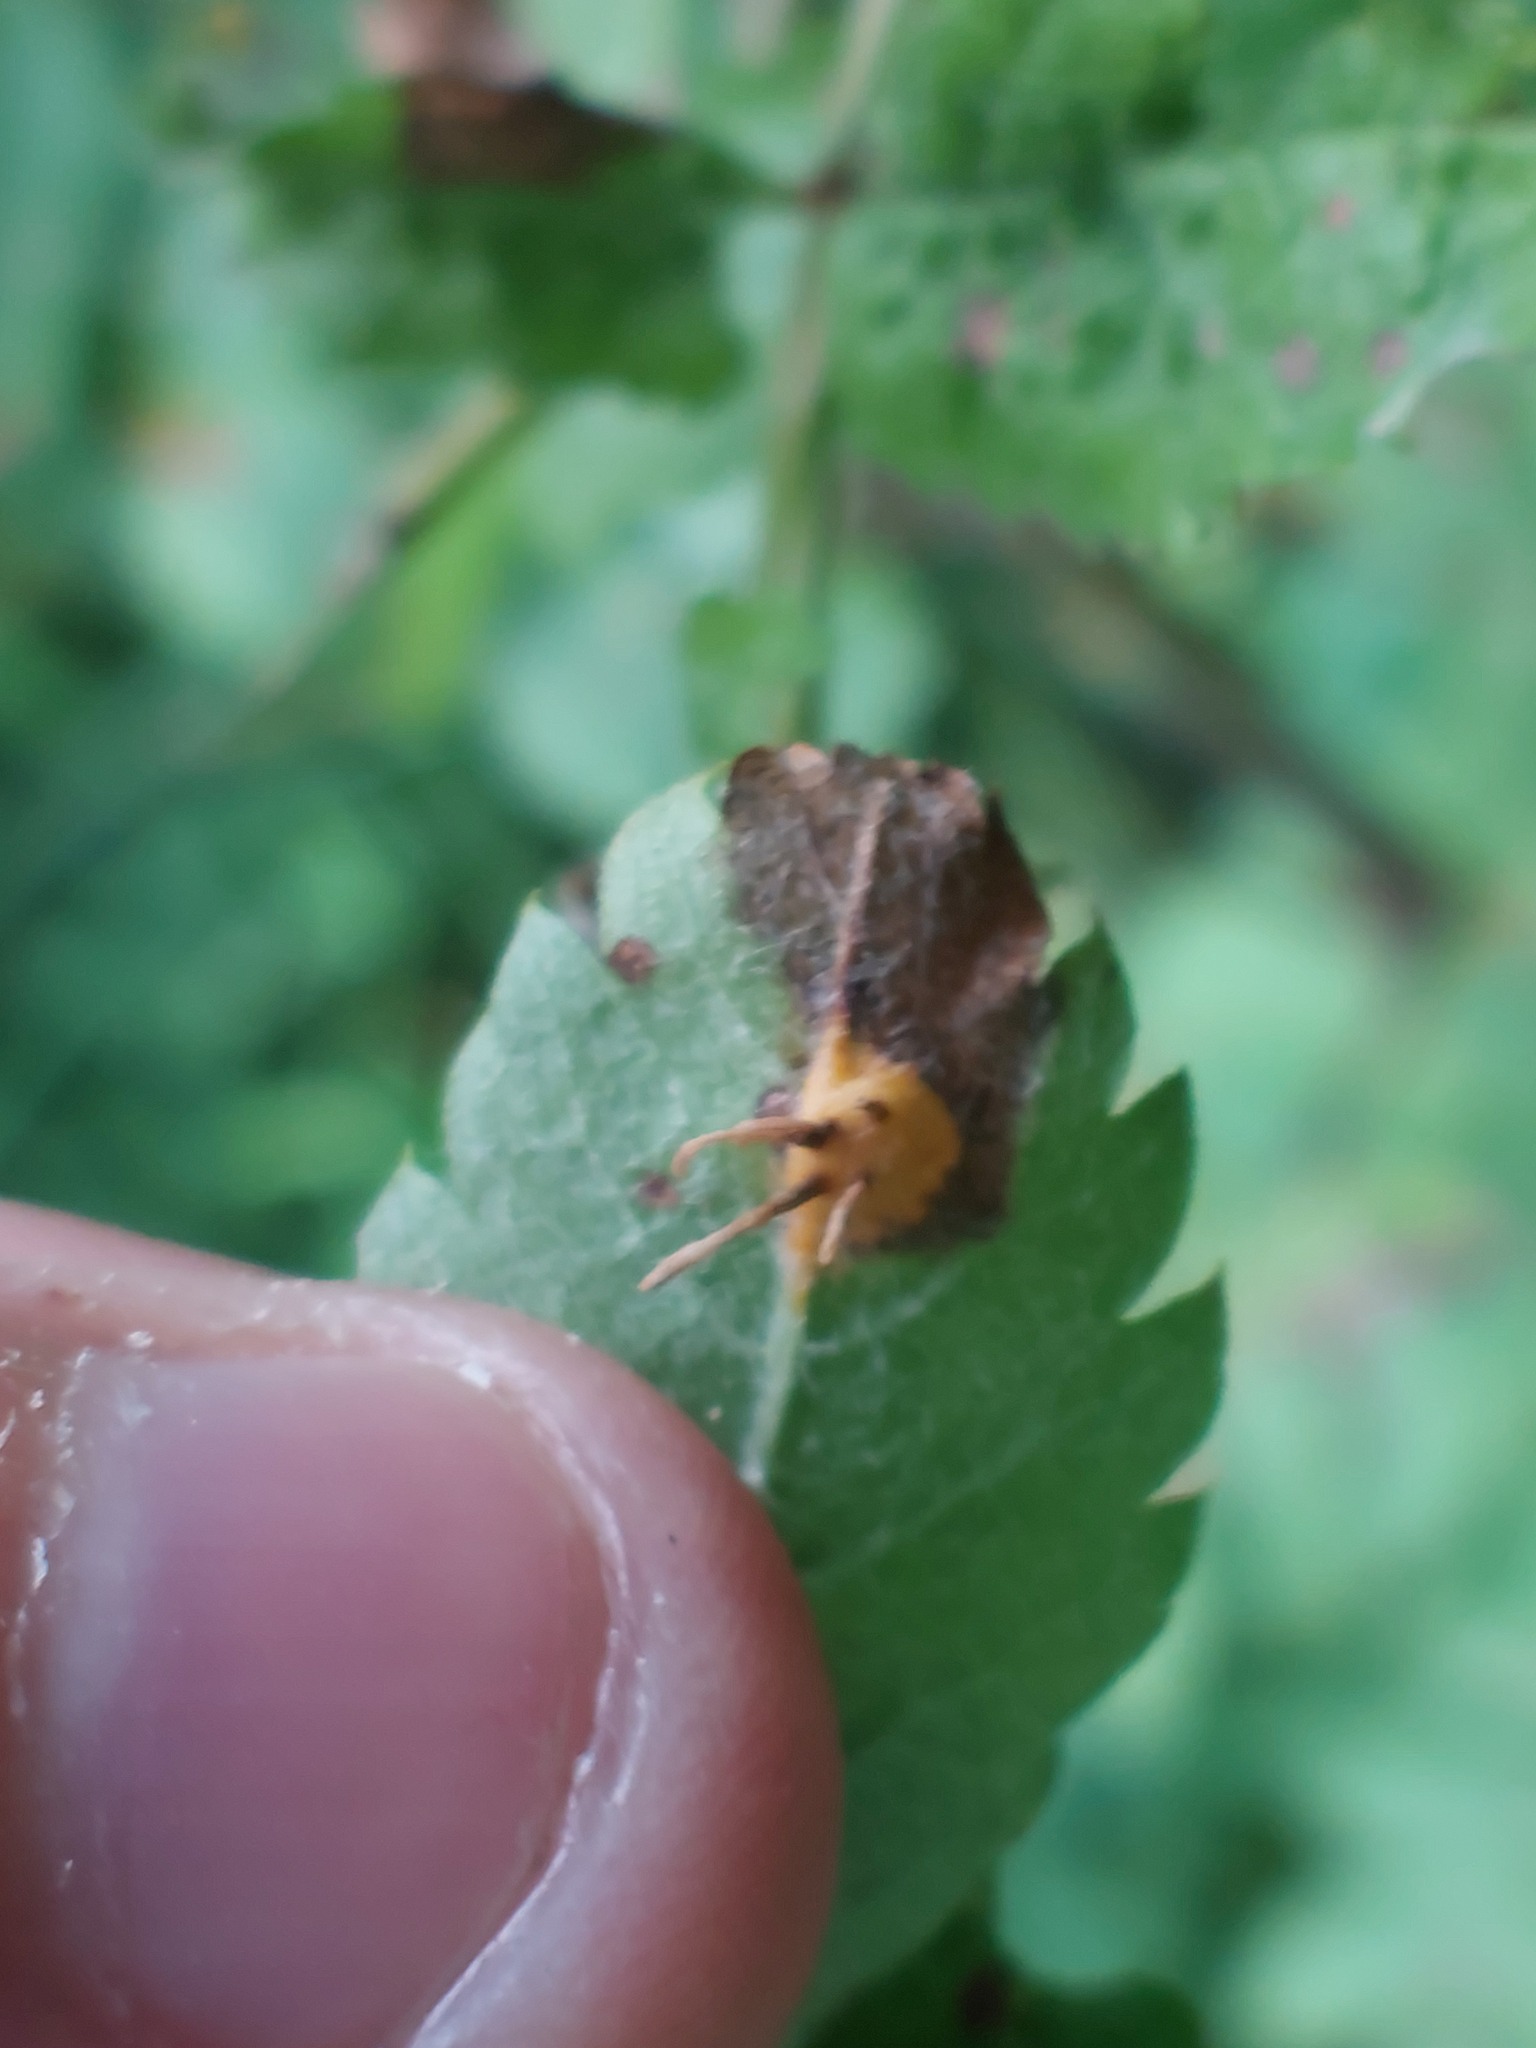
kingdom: Fungi
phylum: Basidiomycota
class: Pucciniomycetes
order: Pucciniales
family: Gymnosporangiaceae
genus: Gymnosporangium
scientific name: Gymnosporangium cornutum
